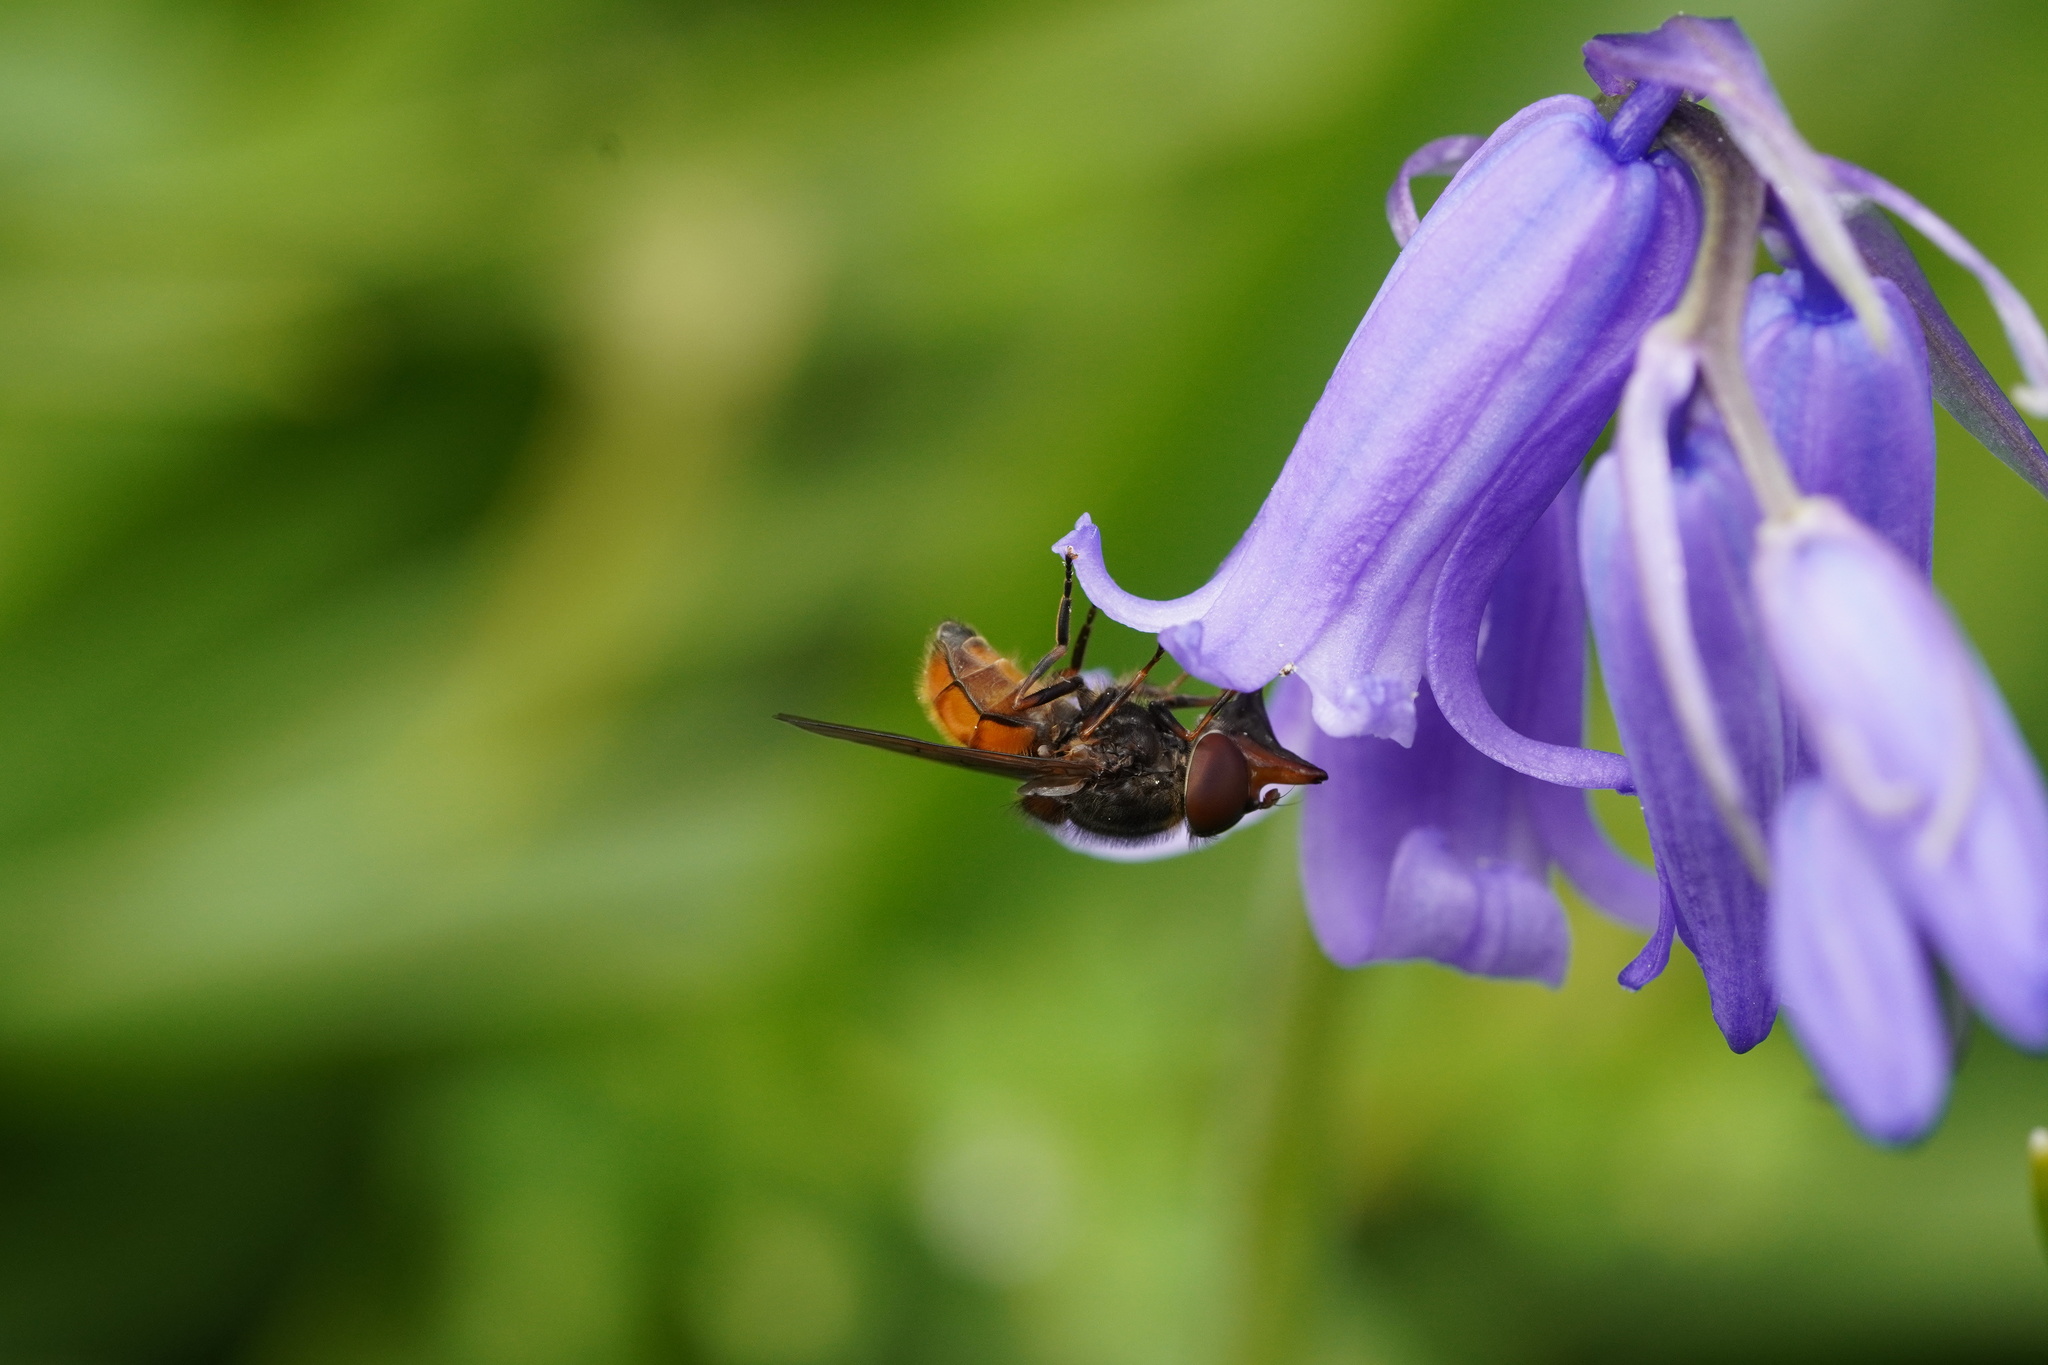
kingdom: Animalia
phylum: Arthropoda
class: Insecta
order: Diptera
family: Syrphidae
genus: Rhingia
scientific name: Rhingia campestris
